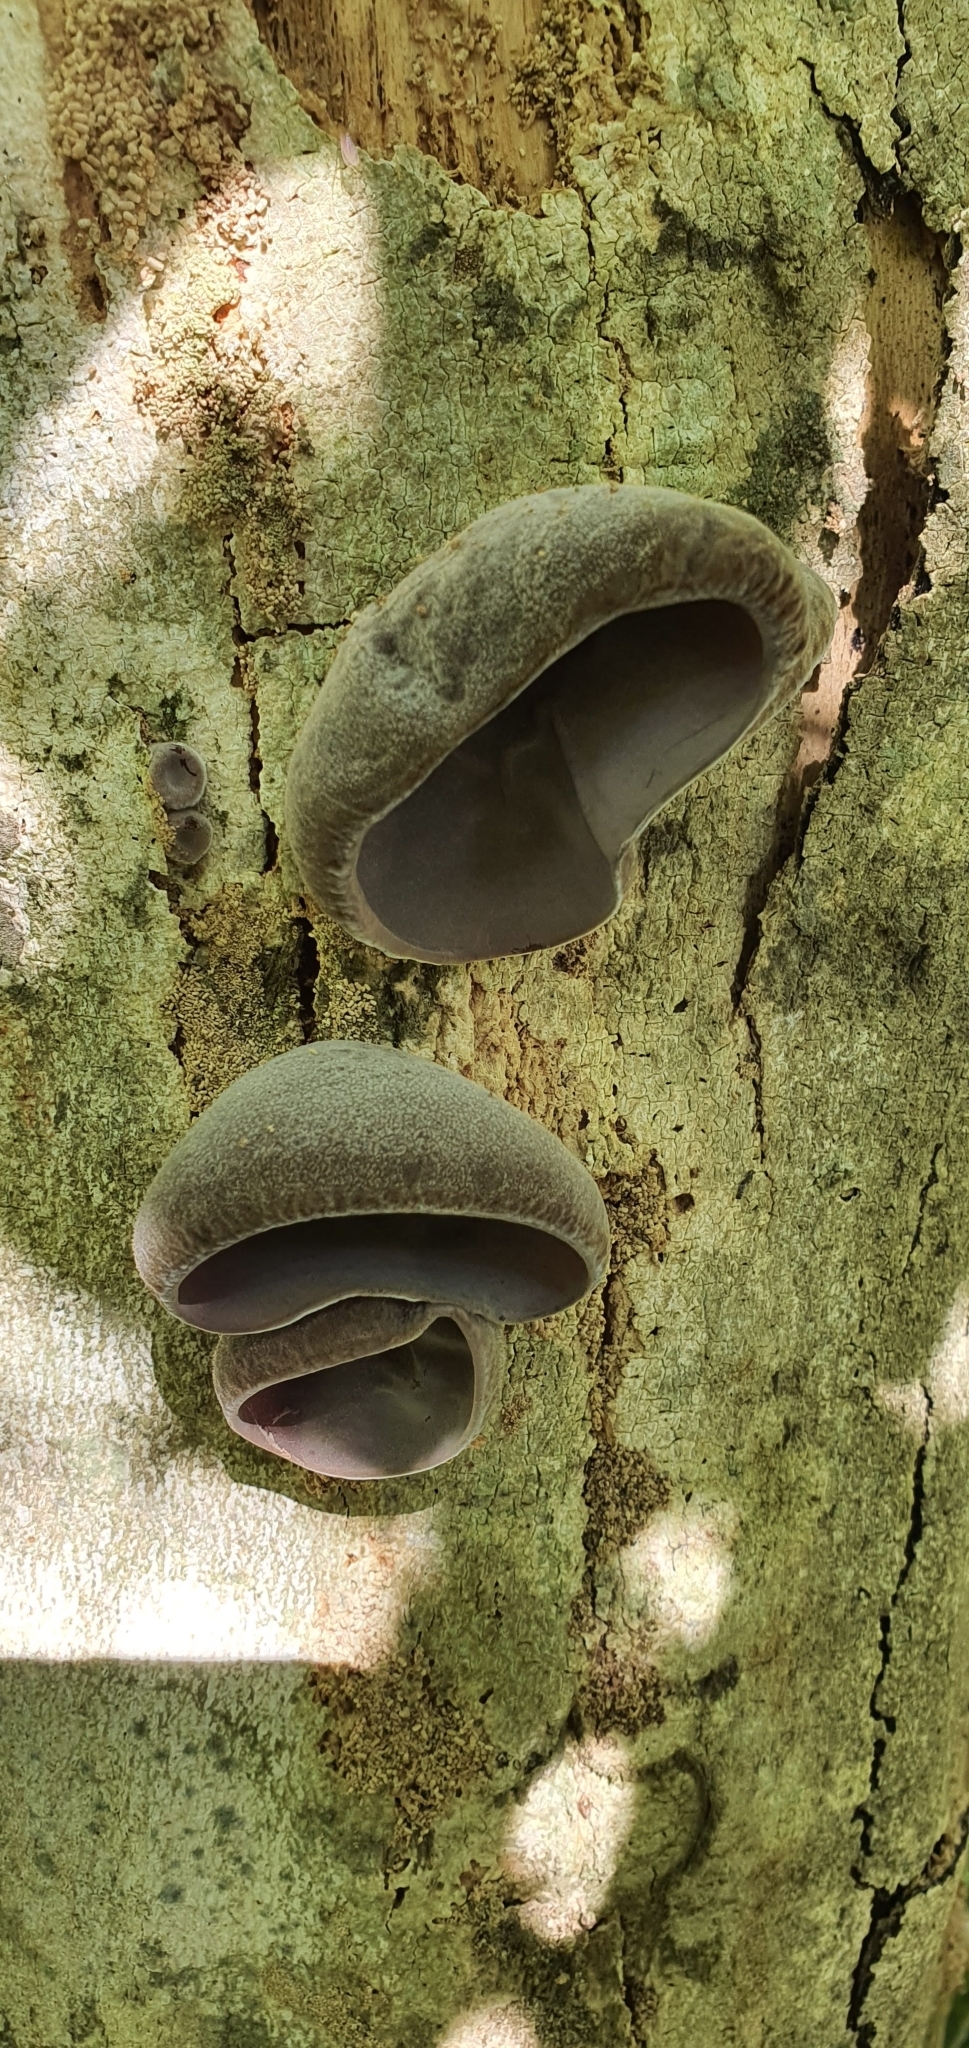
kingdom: Fungi
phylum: Basidiomycota
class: Agaricomycetes
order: Auriculariales
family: Auriculariaceae
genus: Auricularia
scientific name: Auricularia cornea
